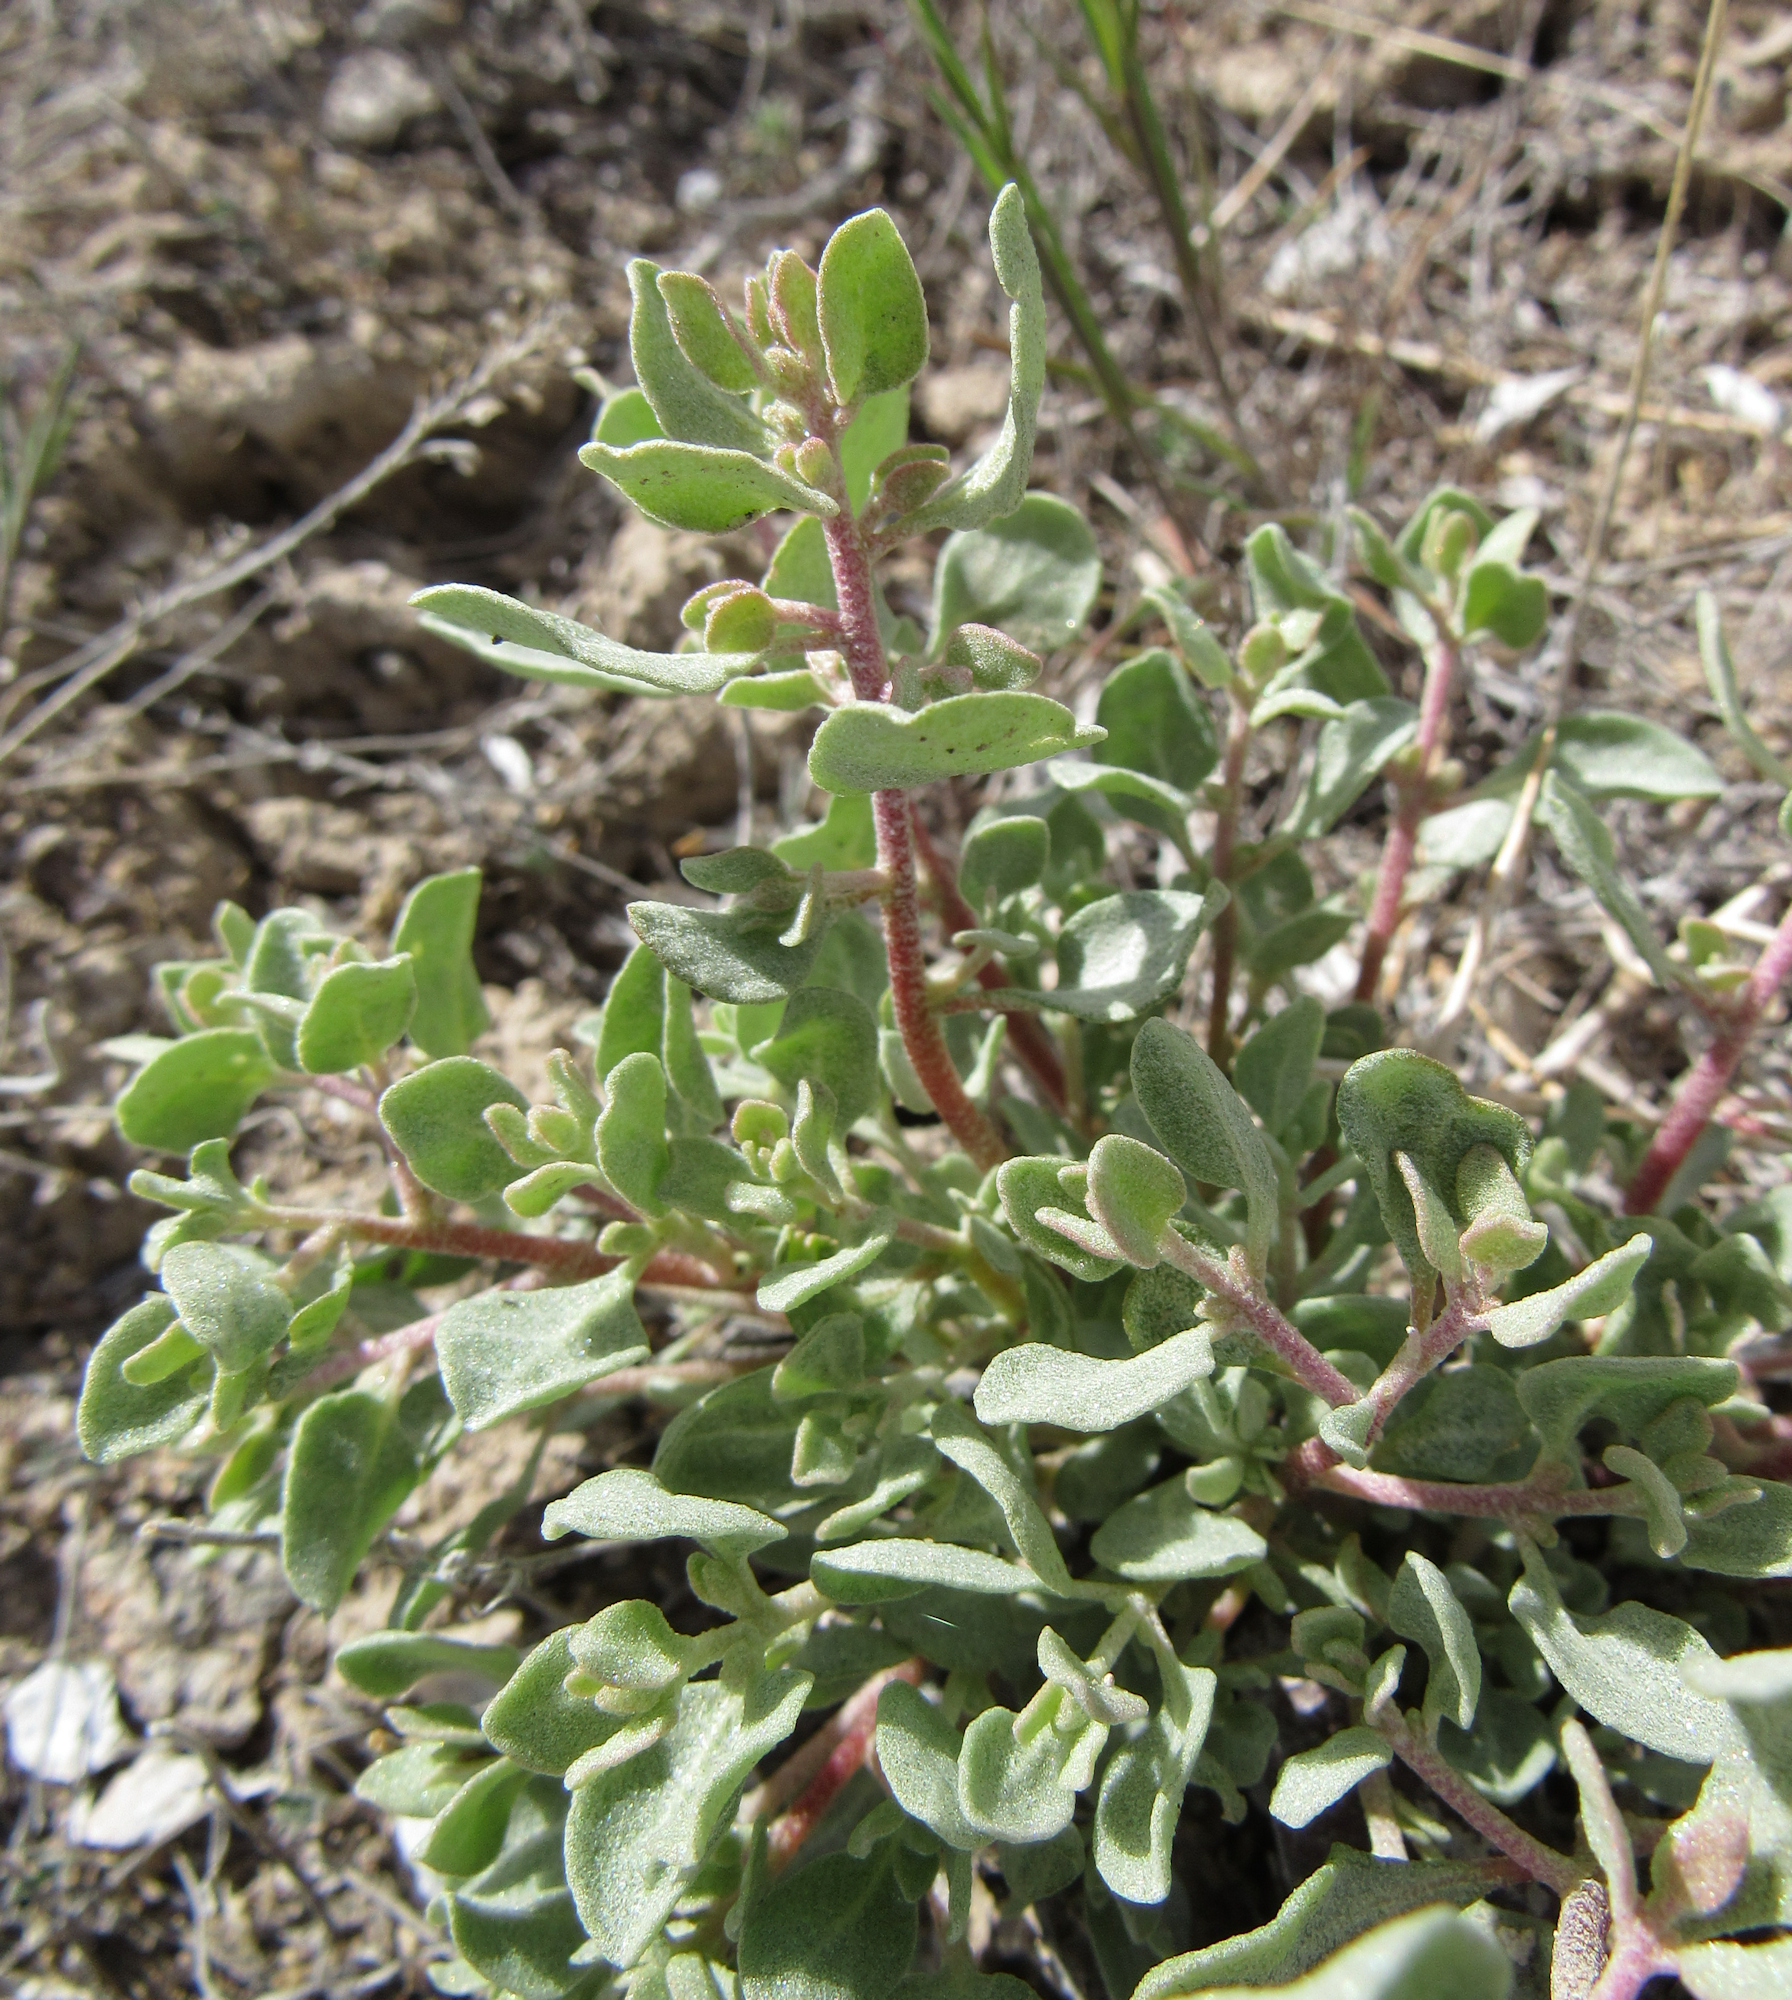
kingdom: Plantae
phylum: Tracheophyta
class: Magnoliopsida
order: Caryophyllales
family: Amaranthaceae
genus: Atriplex
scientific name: Atriplex confertifolia
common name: Shadscale
